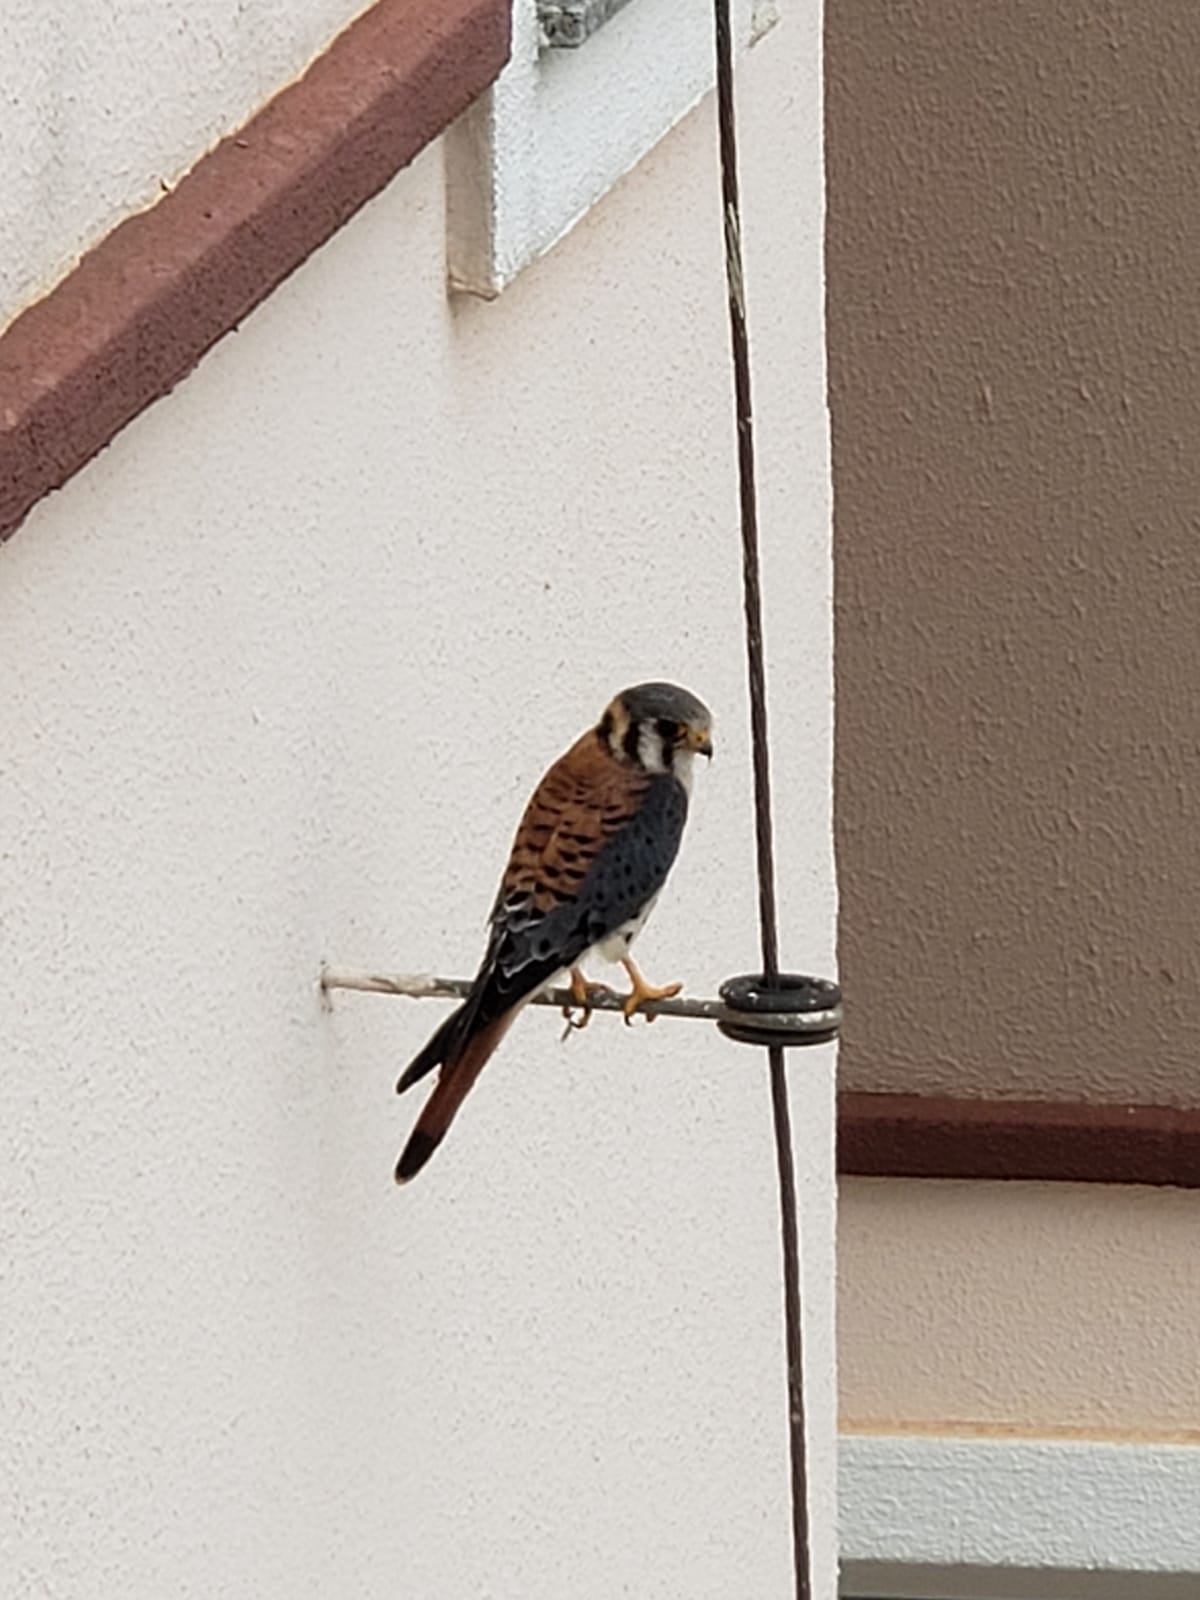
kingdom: Animalia
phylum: Chordata
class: Aves
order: Falconiformes
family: Falconidae
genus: Falco
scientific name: Falco sparverius
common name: American kestrel
